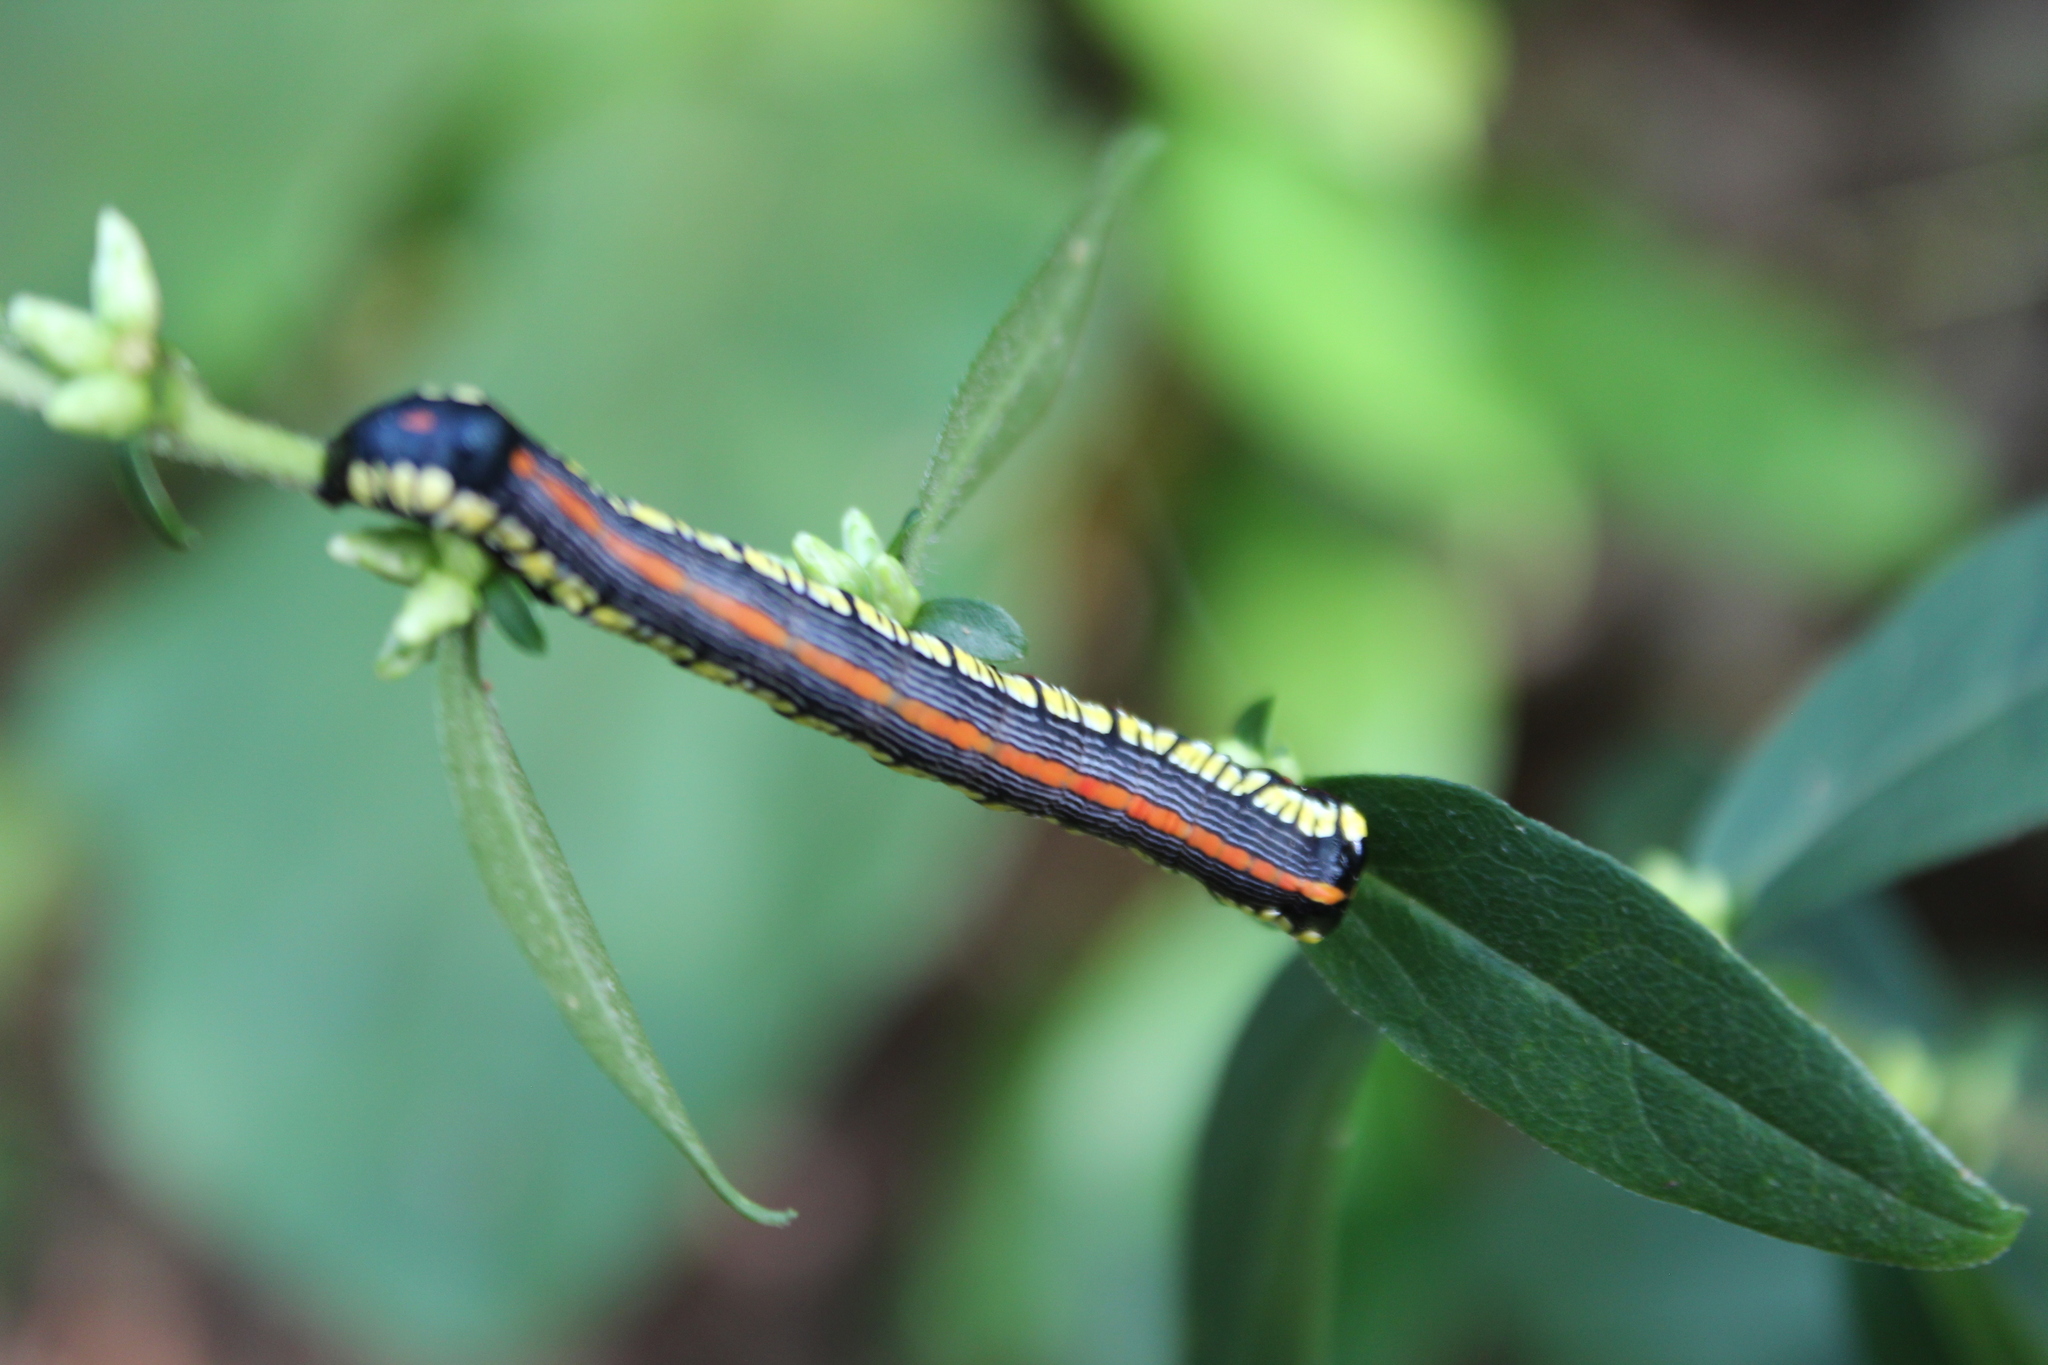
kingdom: Animalia
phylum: Arthropoda
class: Insecta
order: Lepidoptera
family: Noctuidae
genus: Cucullia
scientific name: Cucullia convexipennis
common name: Brown-hooded owlet
